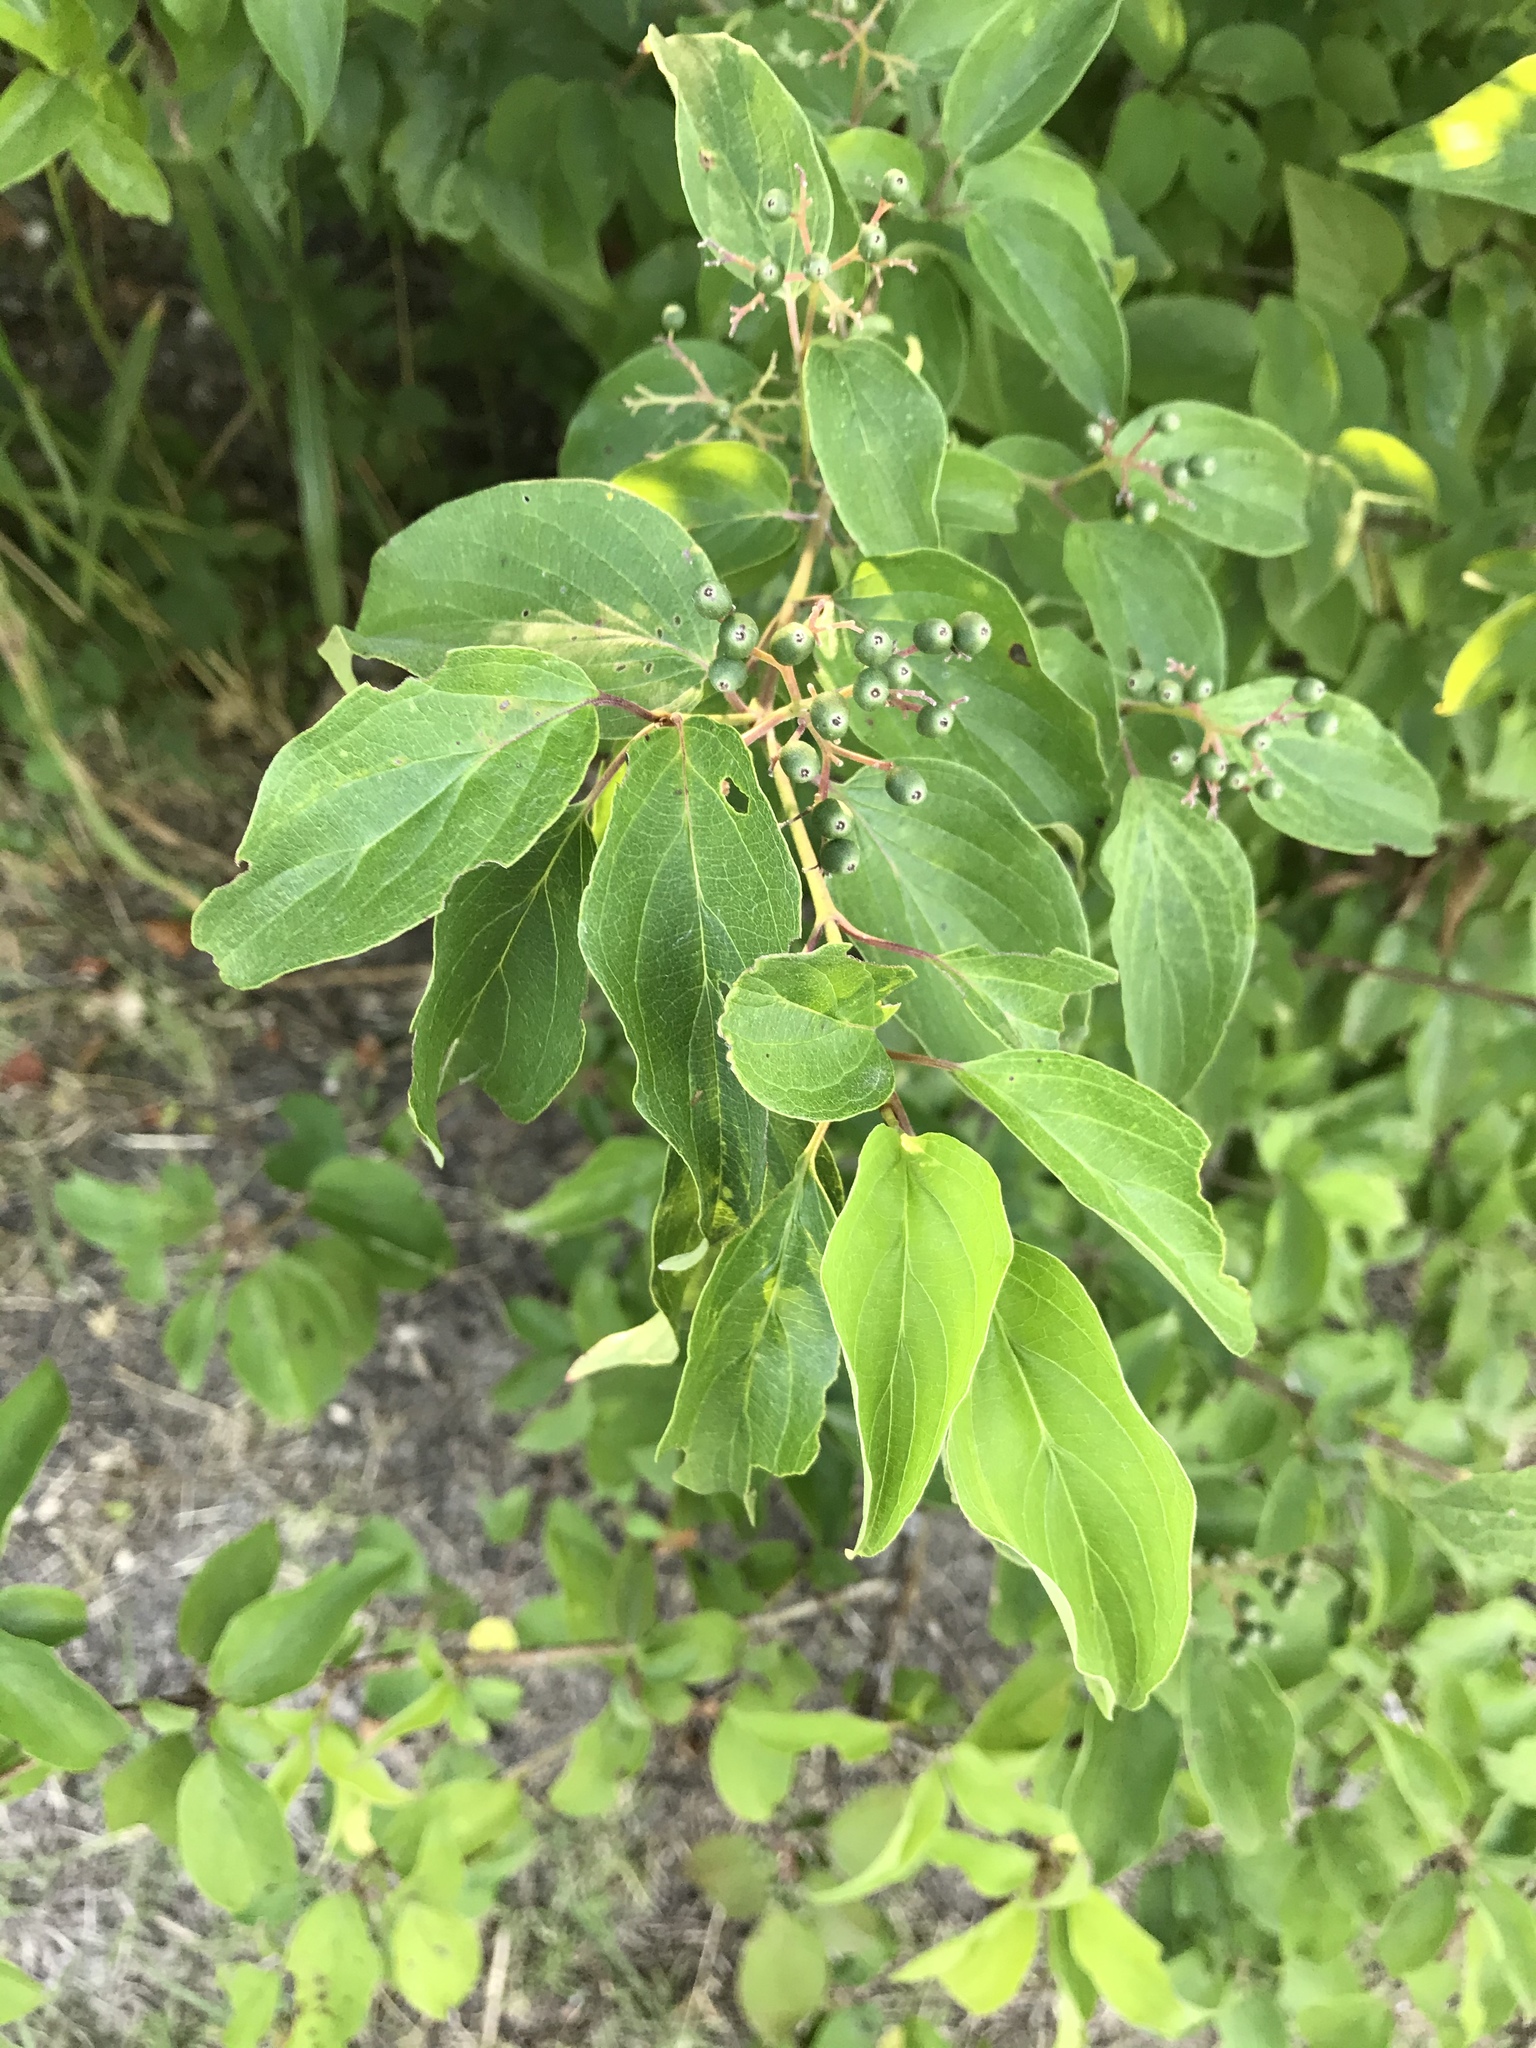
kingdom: Plantae
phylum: Tracheophyta
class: Magnoliopsida
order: Cornales
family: Cornaceae
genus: Cornus
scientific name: Cornus drummondii
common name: Rough-leaf dogwood
